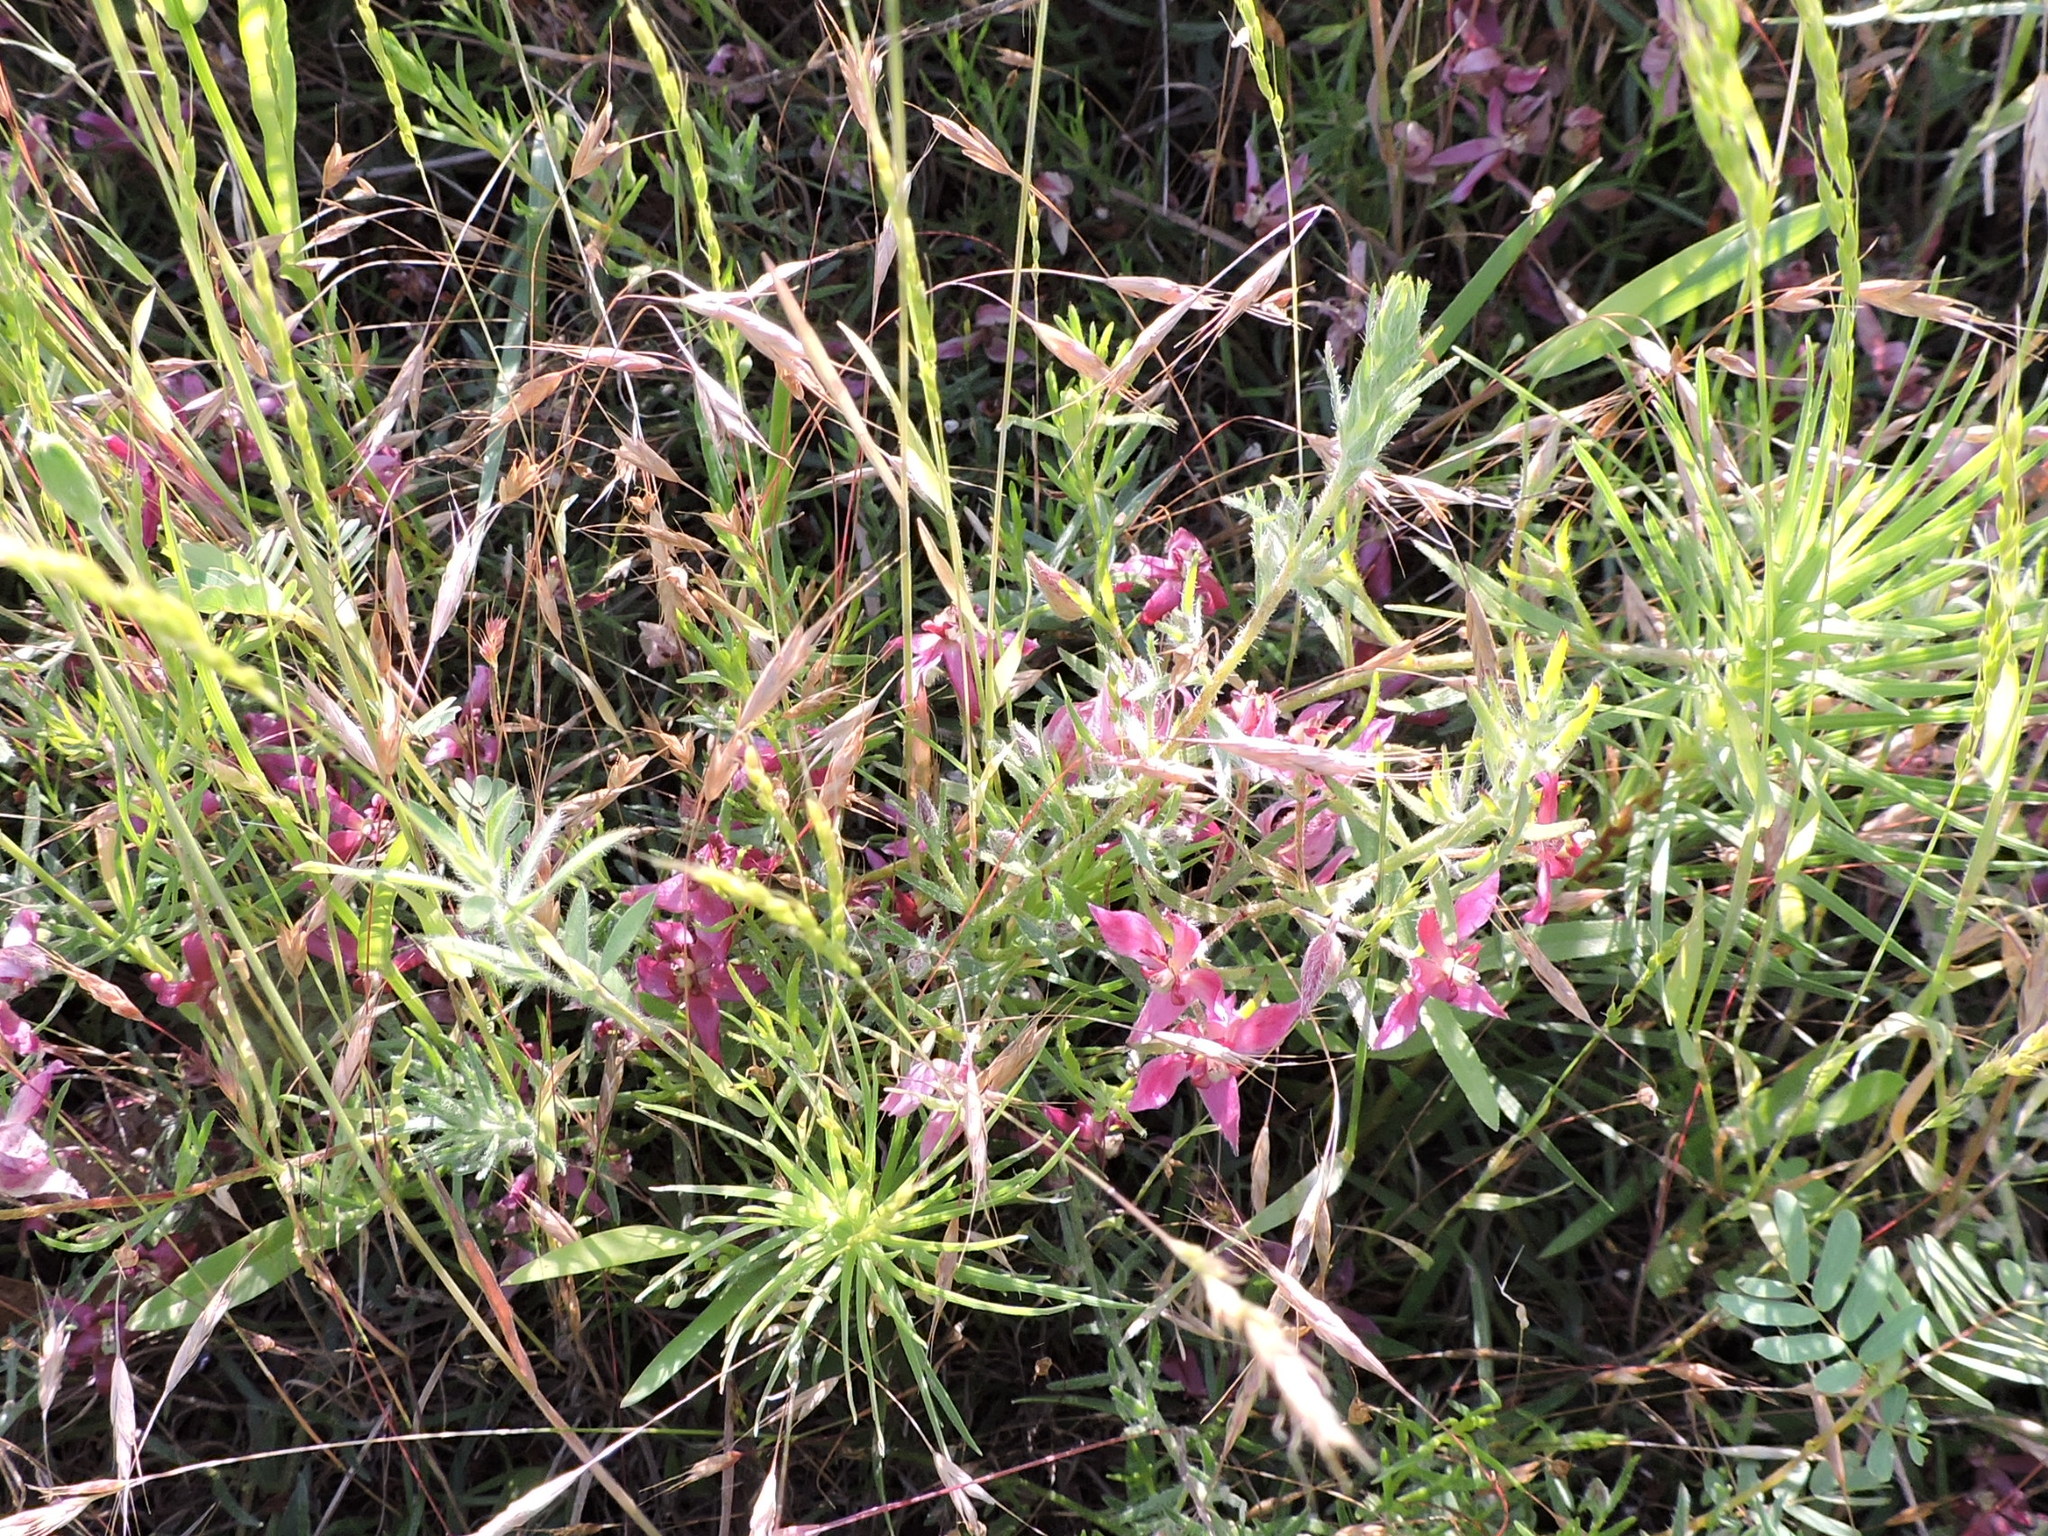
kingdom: Plantae
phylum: Tracheophyta
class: Magnoliopsida
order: Zygophyllales
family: Krameriaceae
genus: Krameria
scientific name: Krameria lanceolata
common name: Ratany
